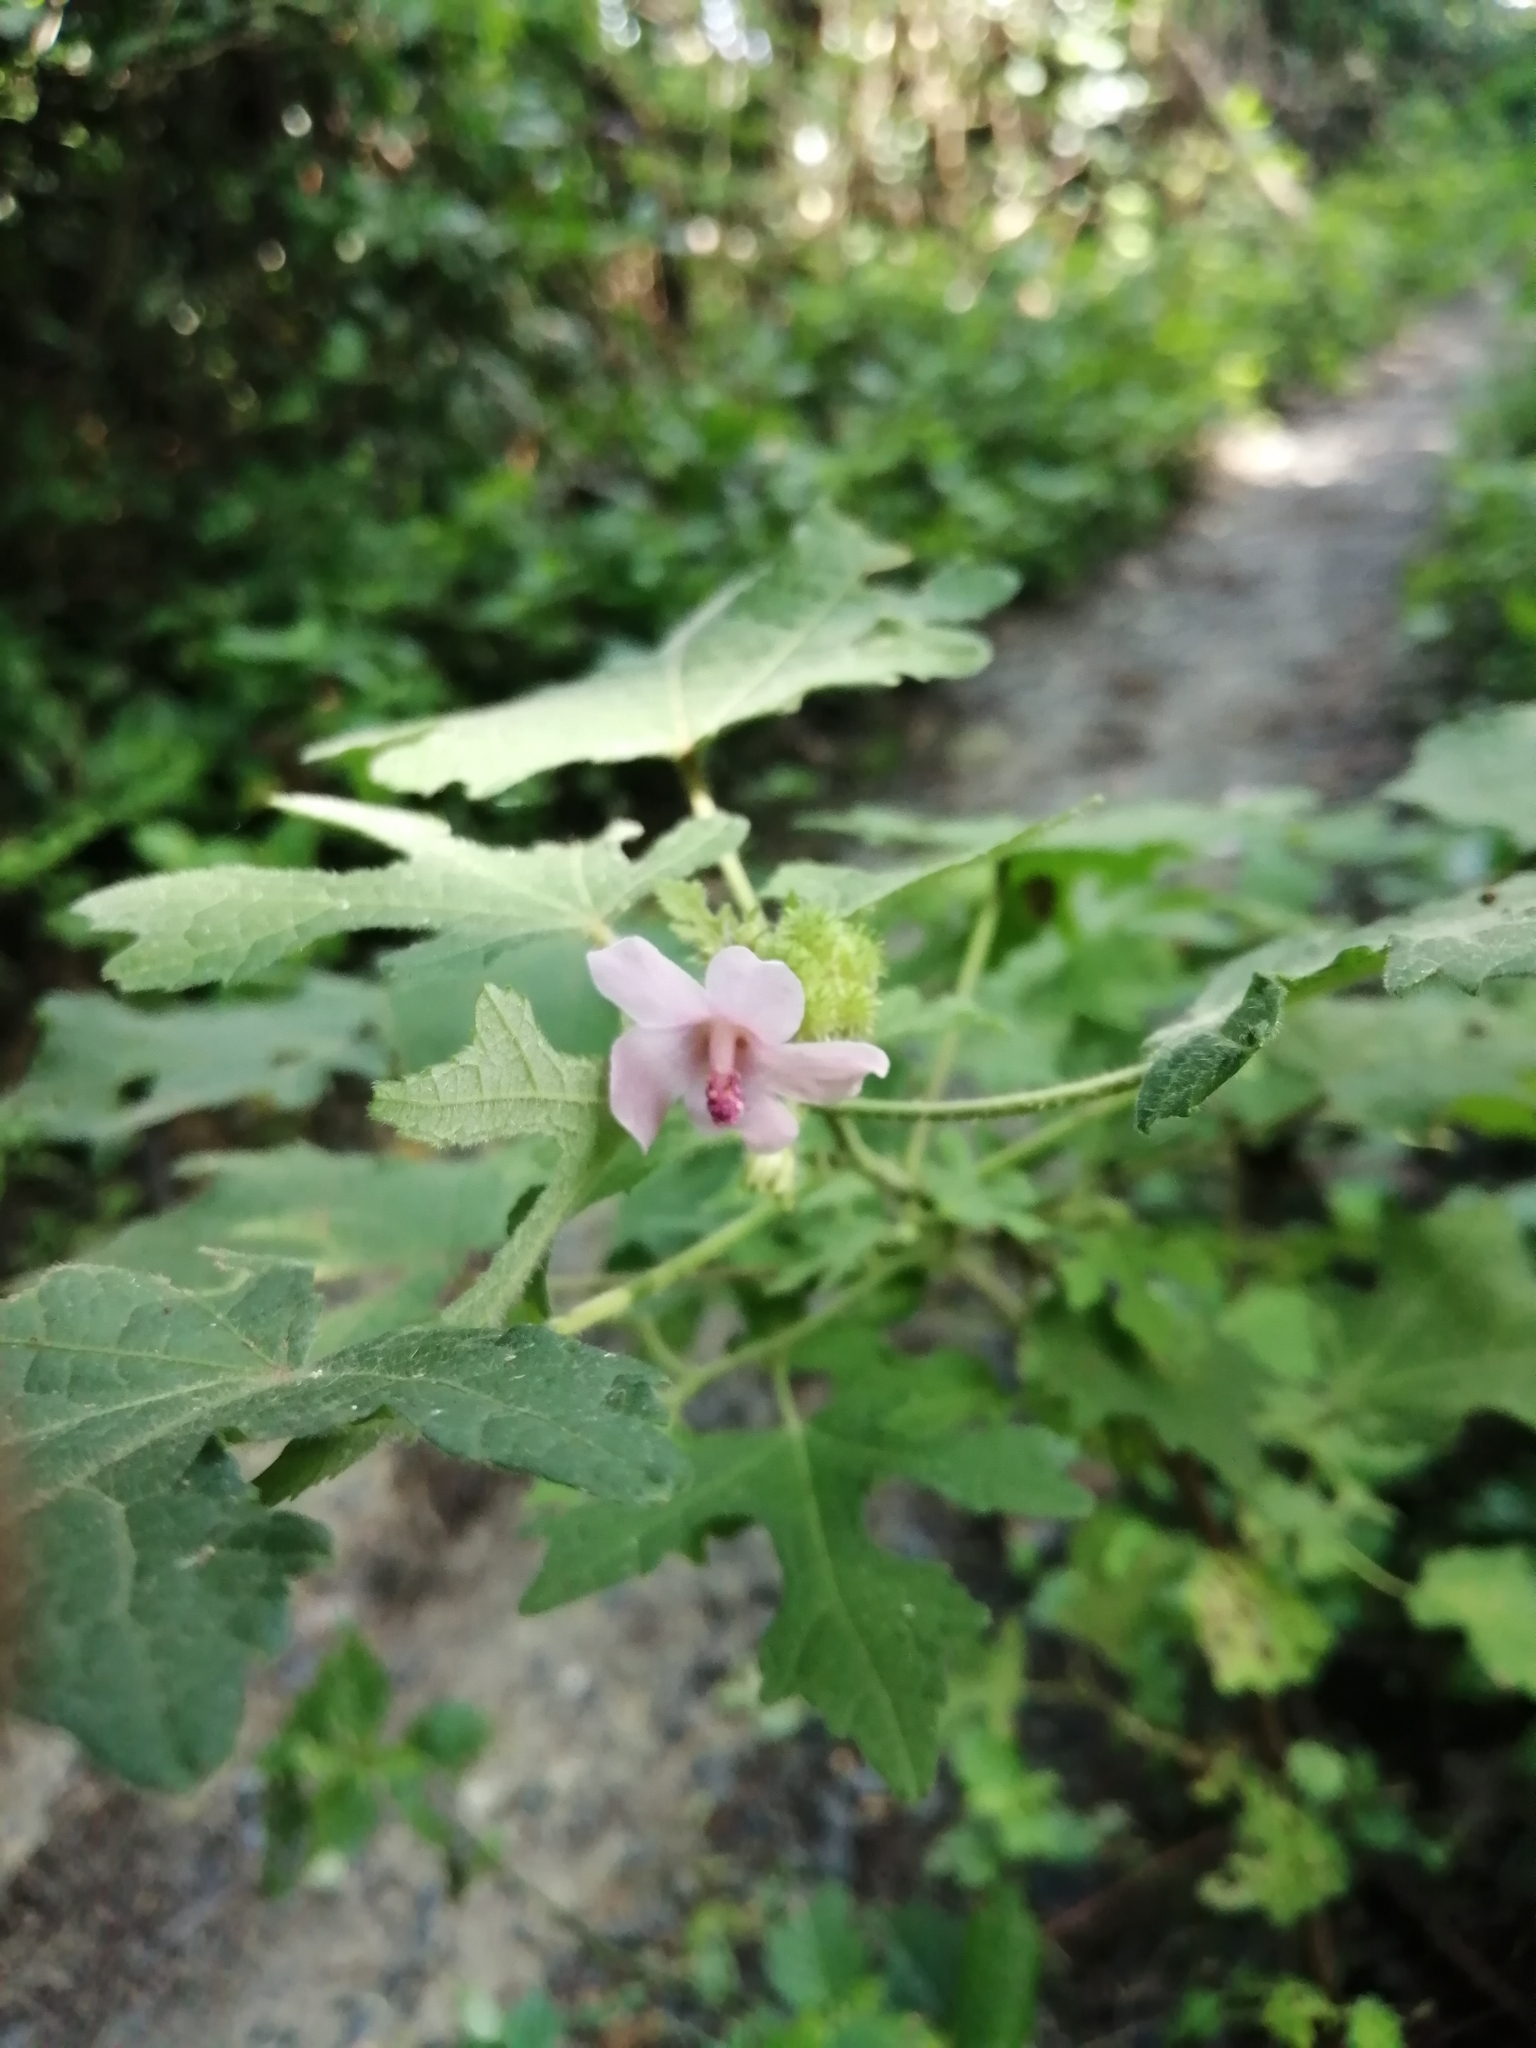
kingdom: Plantae
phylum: Tracheophyta
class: Magnoliopsida
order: Malvales
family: Malvaceae
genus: Urena
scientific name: Urena lobata
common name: Caesarweed
